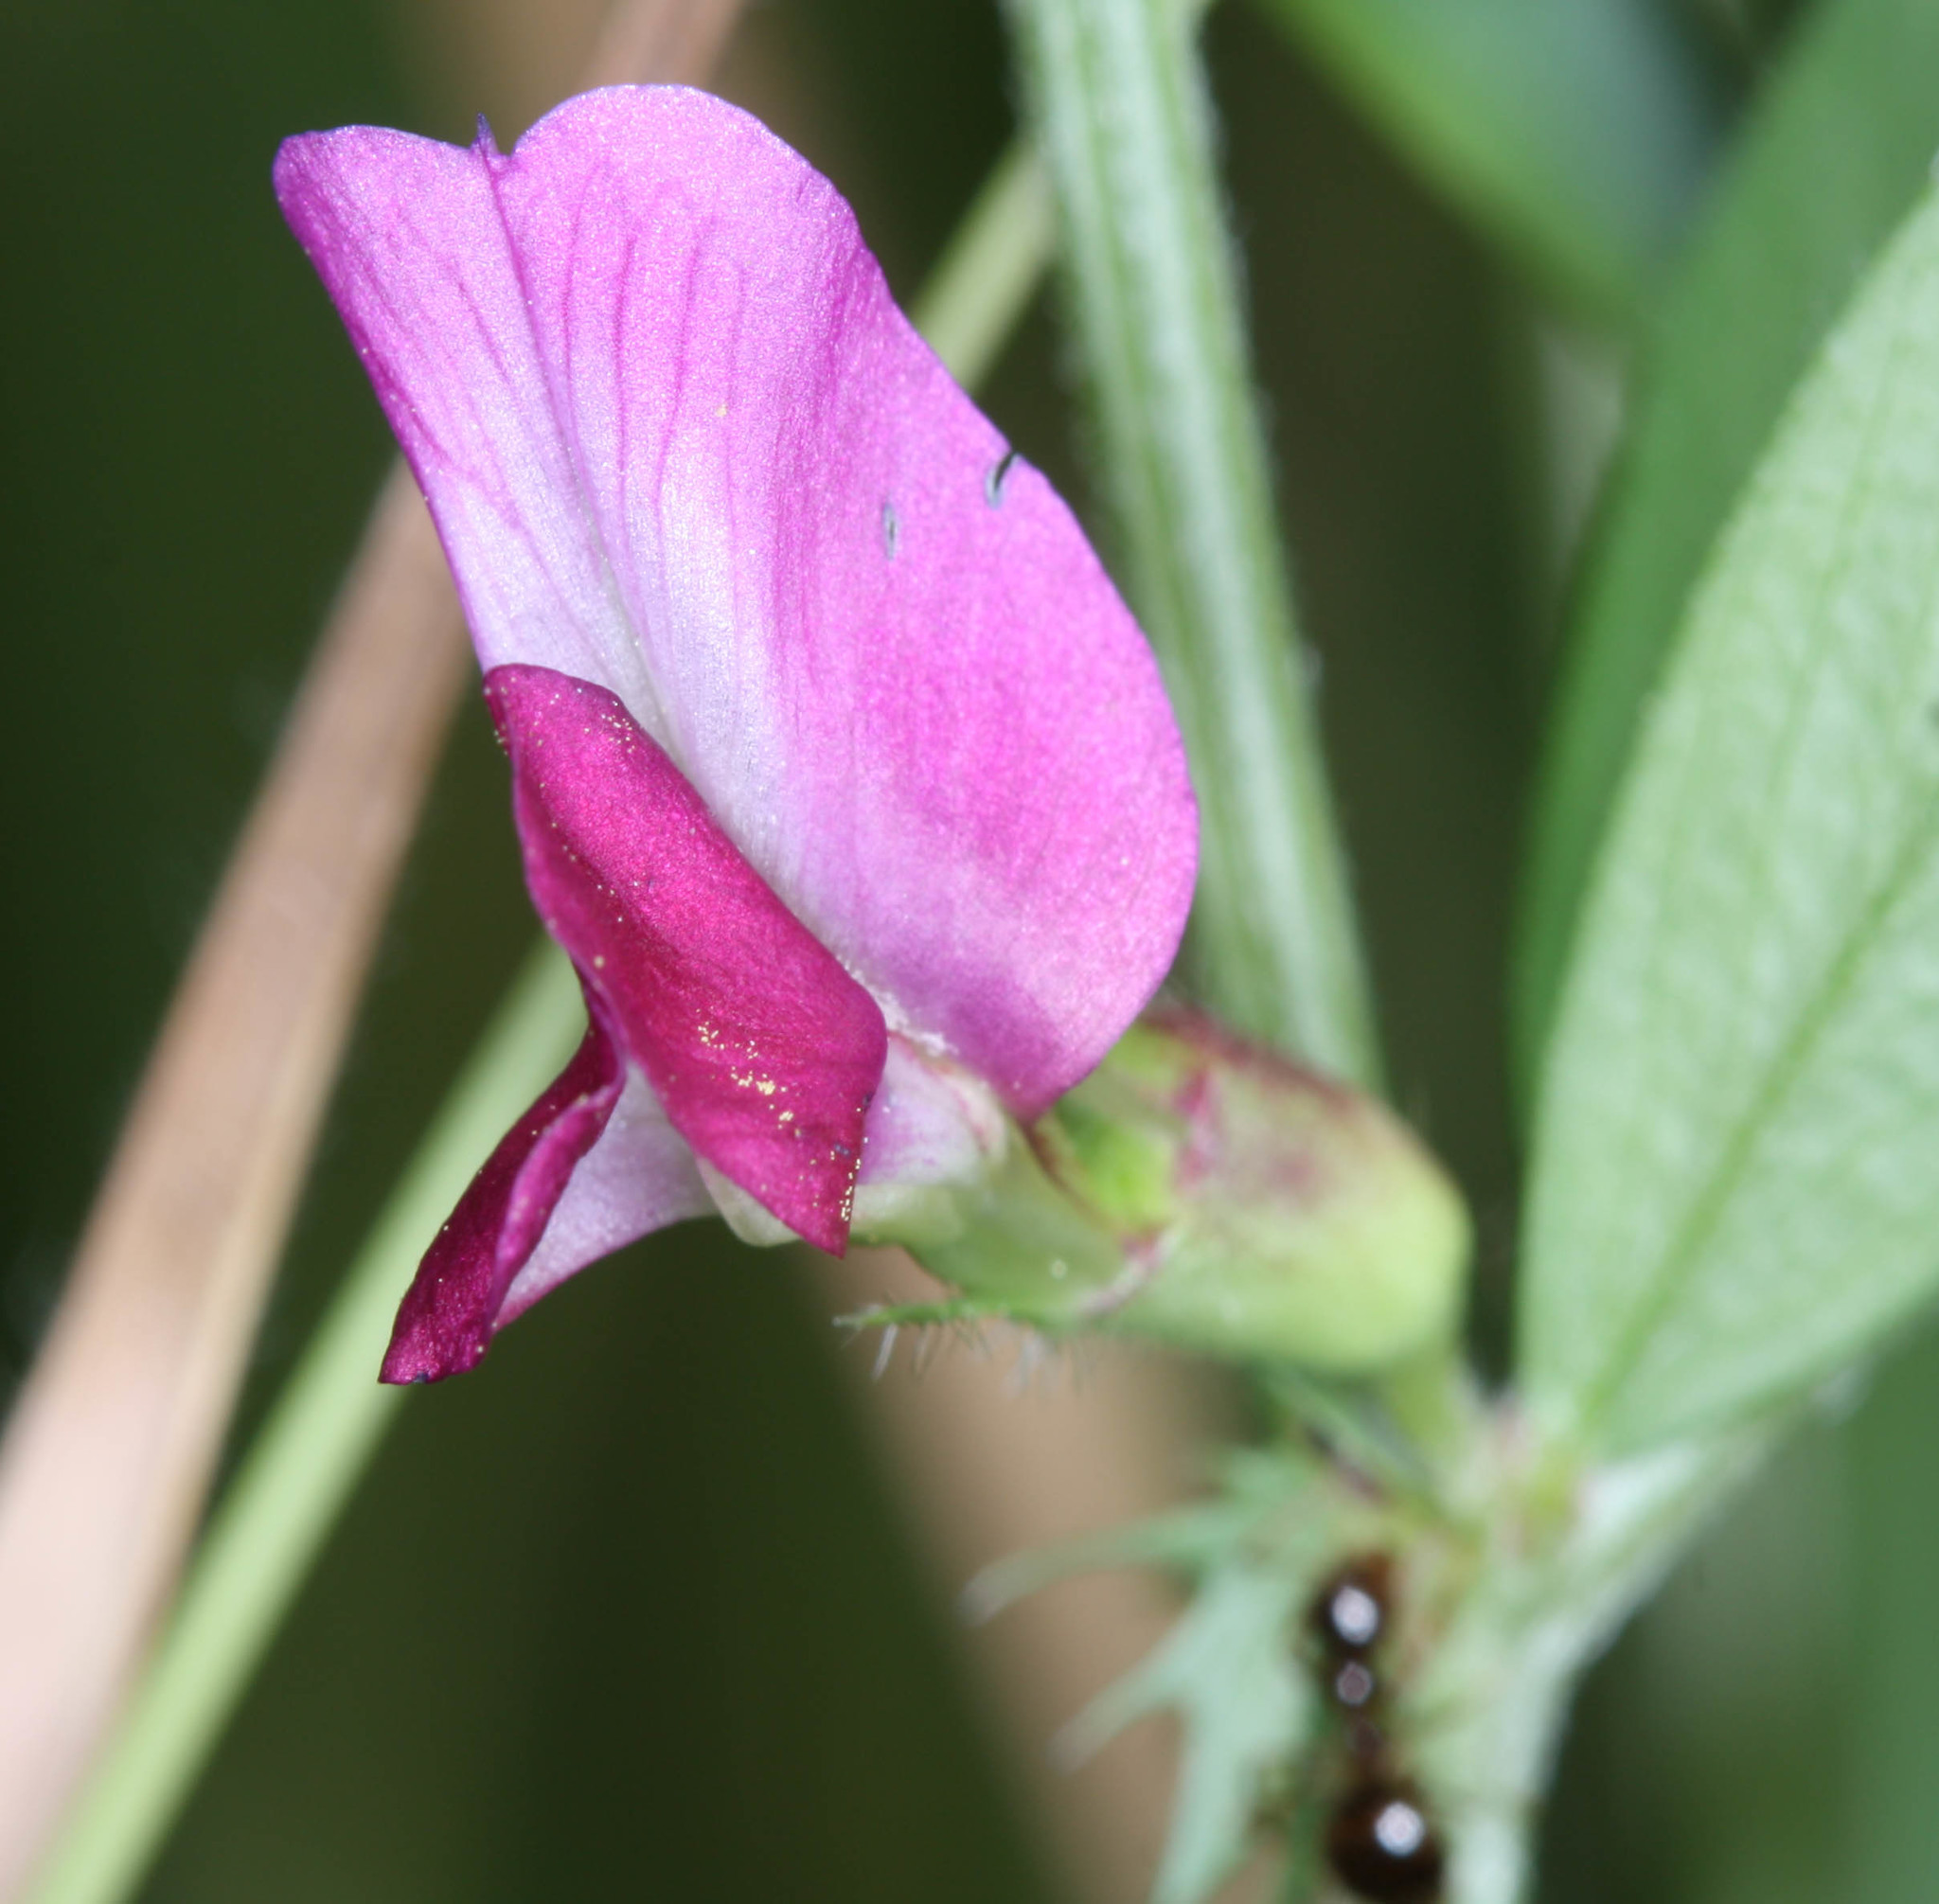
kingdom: Plantae
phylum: Tracheophyta
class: Magnoliopsida
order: Fabales
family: Fabaceae
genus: Vicia
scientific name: Vicia sativa
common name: Garden vetch
